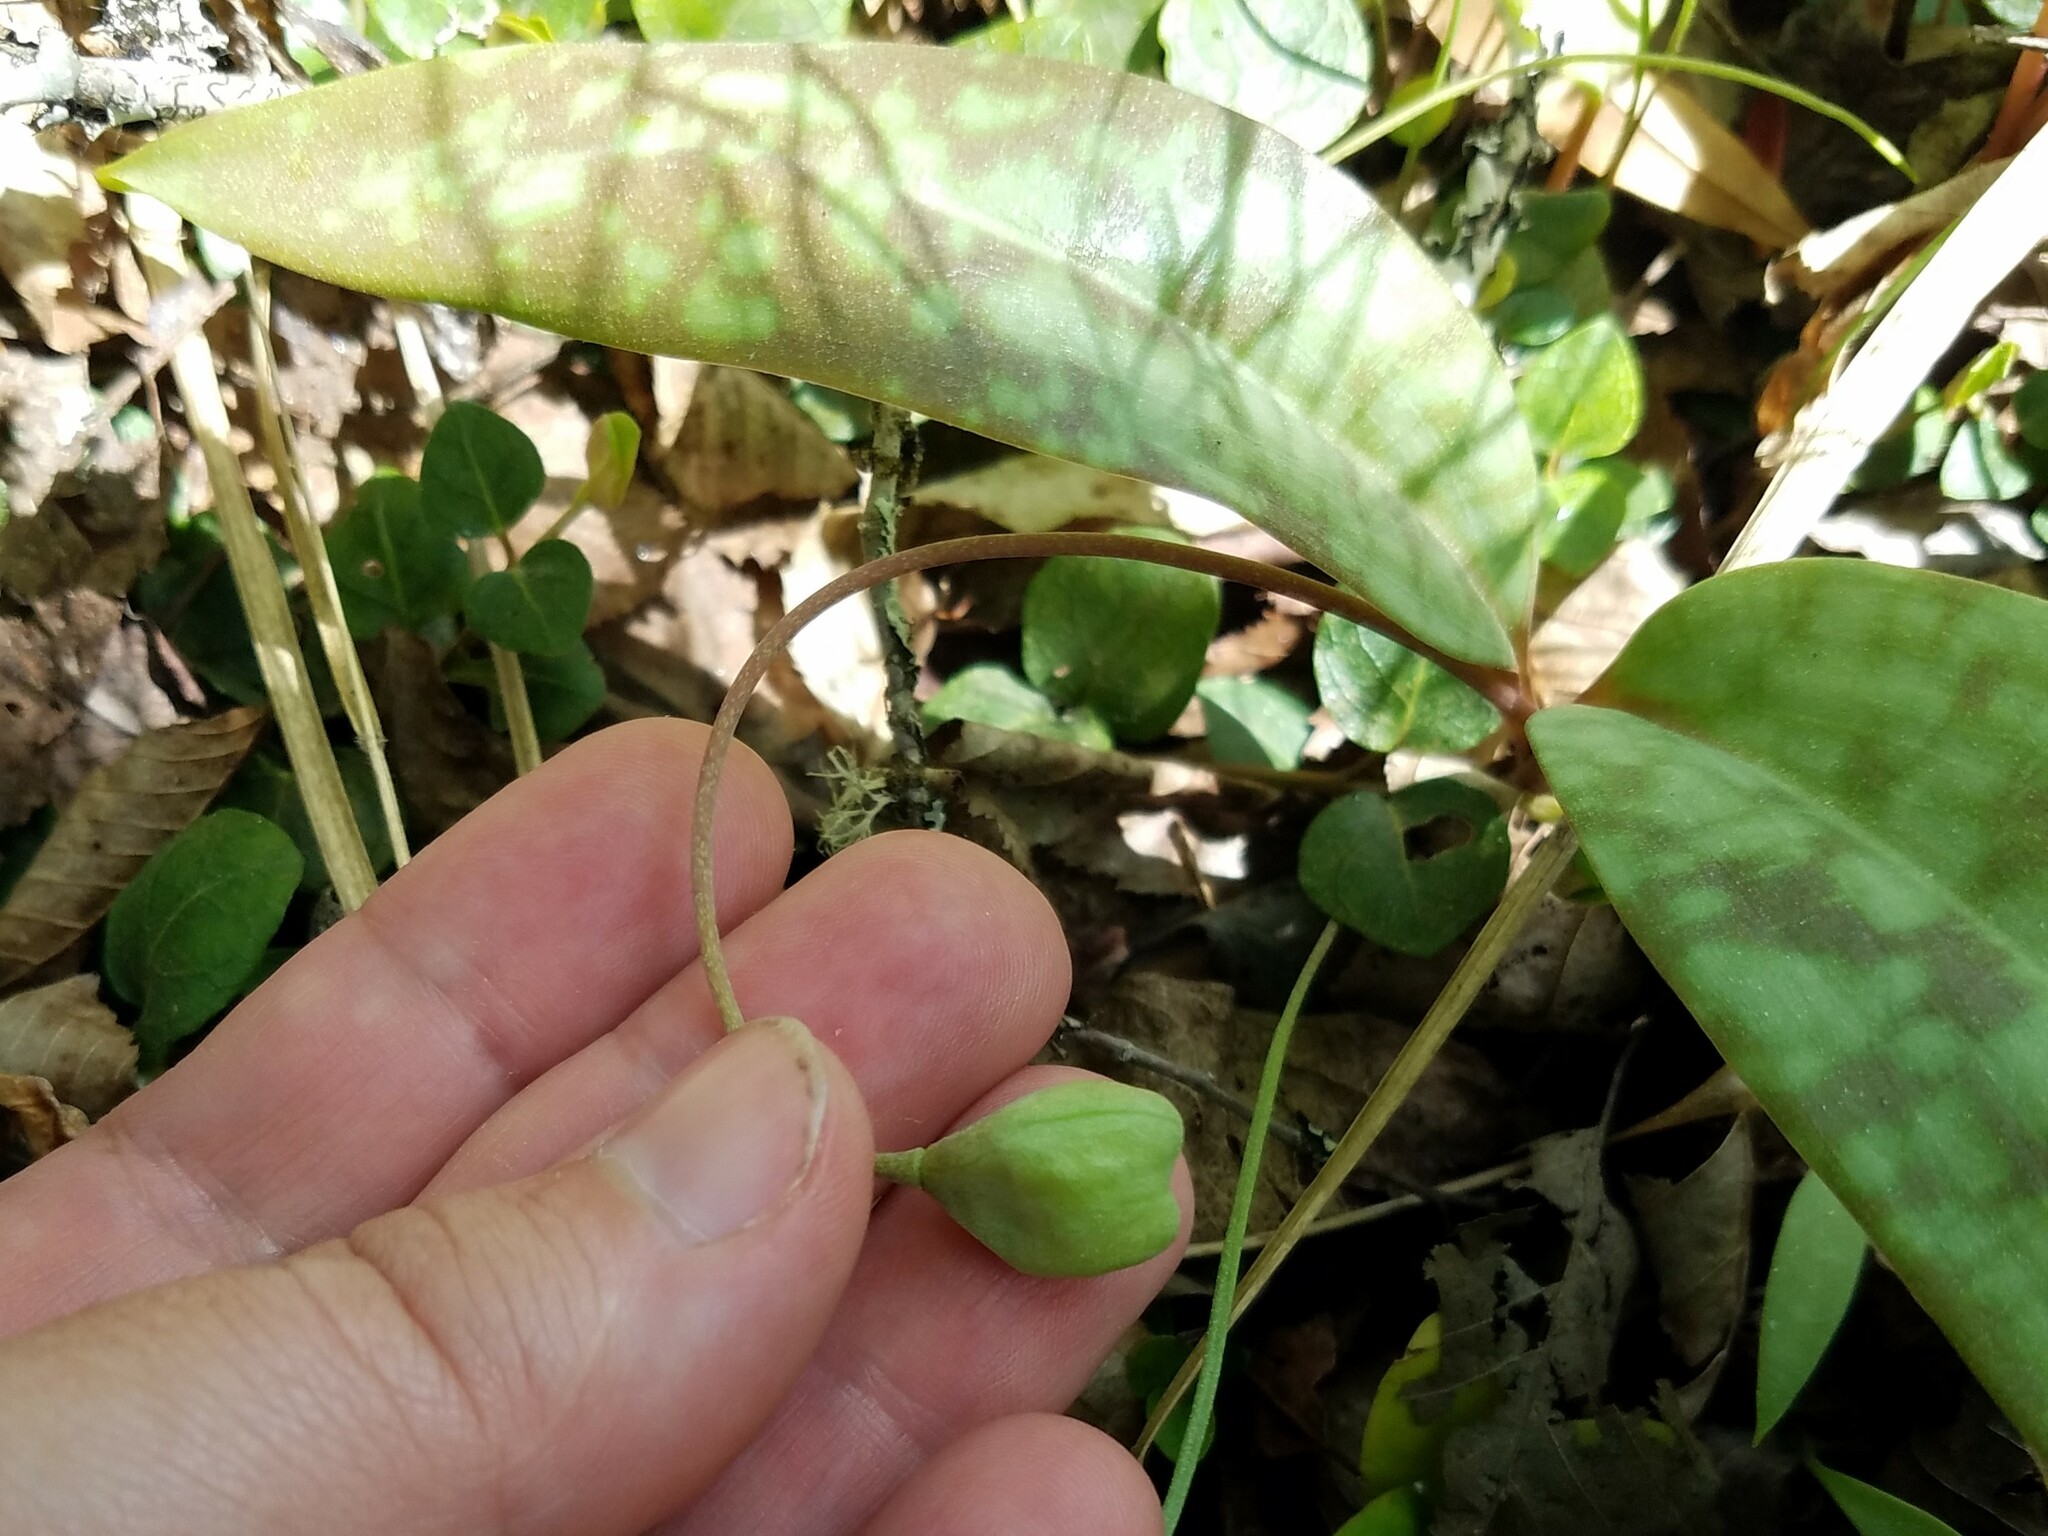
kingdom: Plantae
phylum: Tracheophyta
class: Liliopsida
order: Liliales
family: Liliaceae
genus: Erythronium
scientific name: Erythronium umbilicatum
